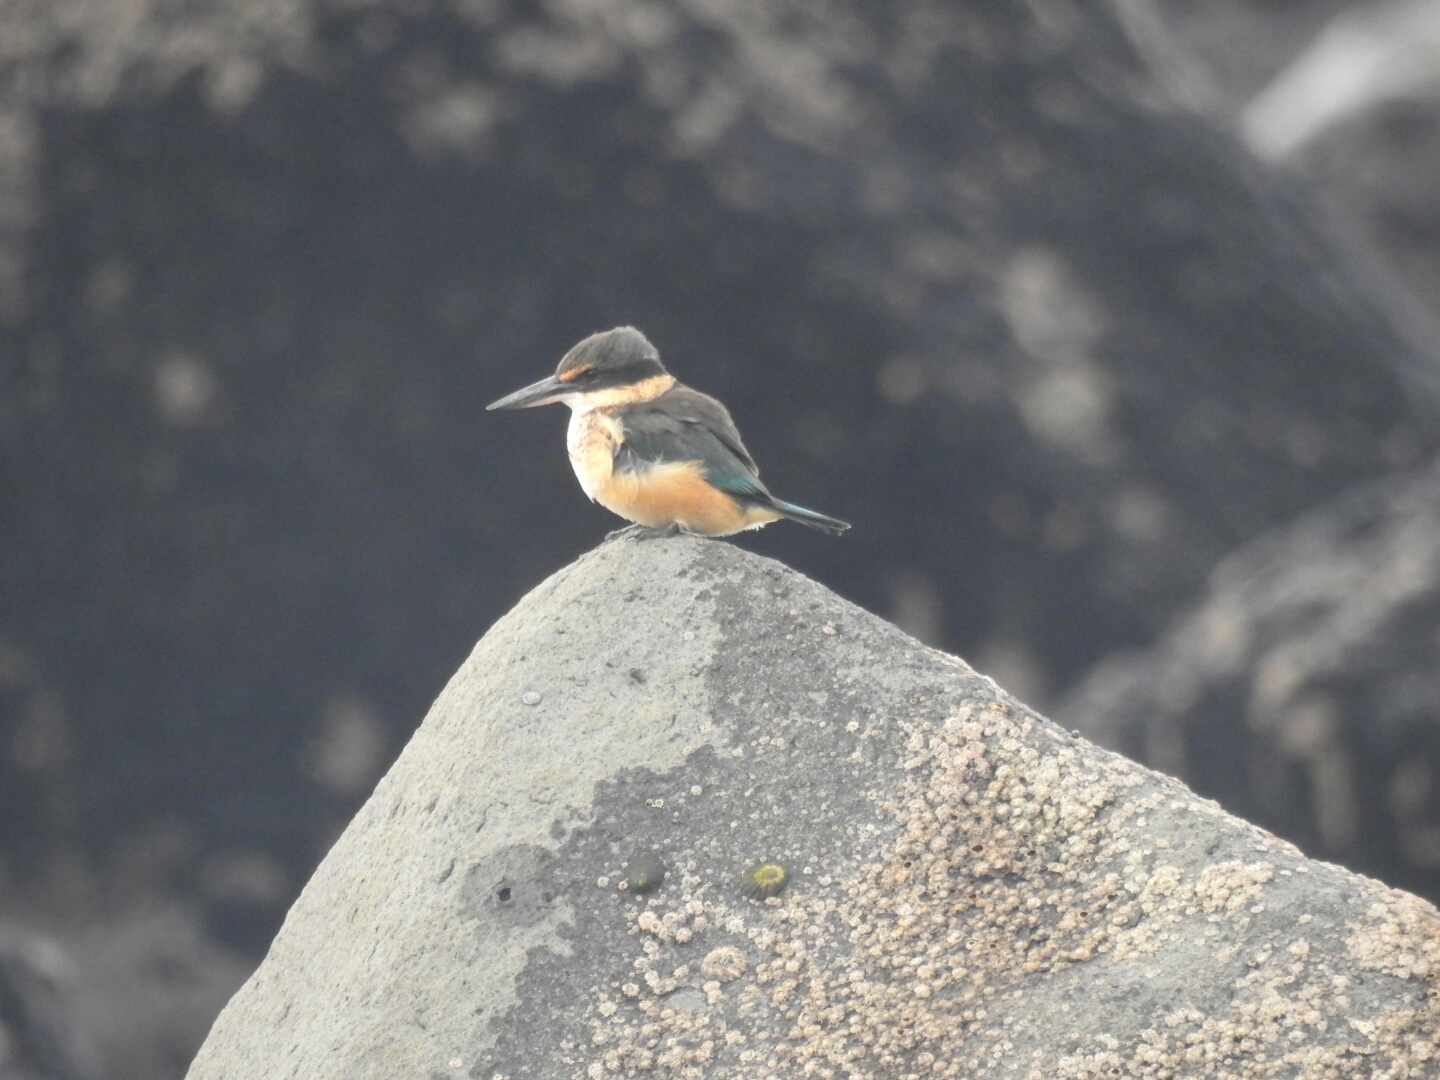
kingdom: Animalia
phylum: Chordata
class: Aves
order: Coraciiformes
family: Alcedinidae
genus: Todiramphus
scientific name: Todiramphus sanctus
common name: Sacred kingfisher
